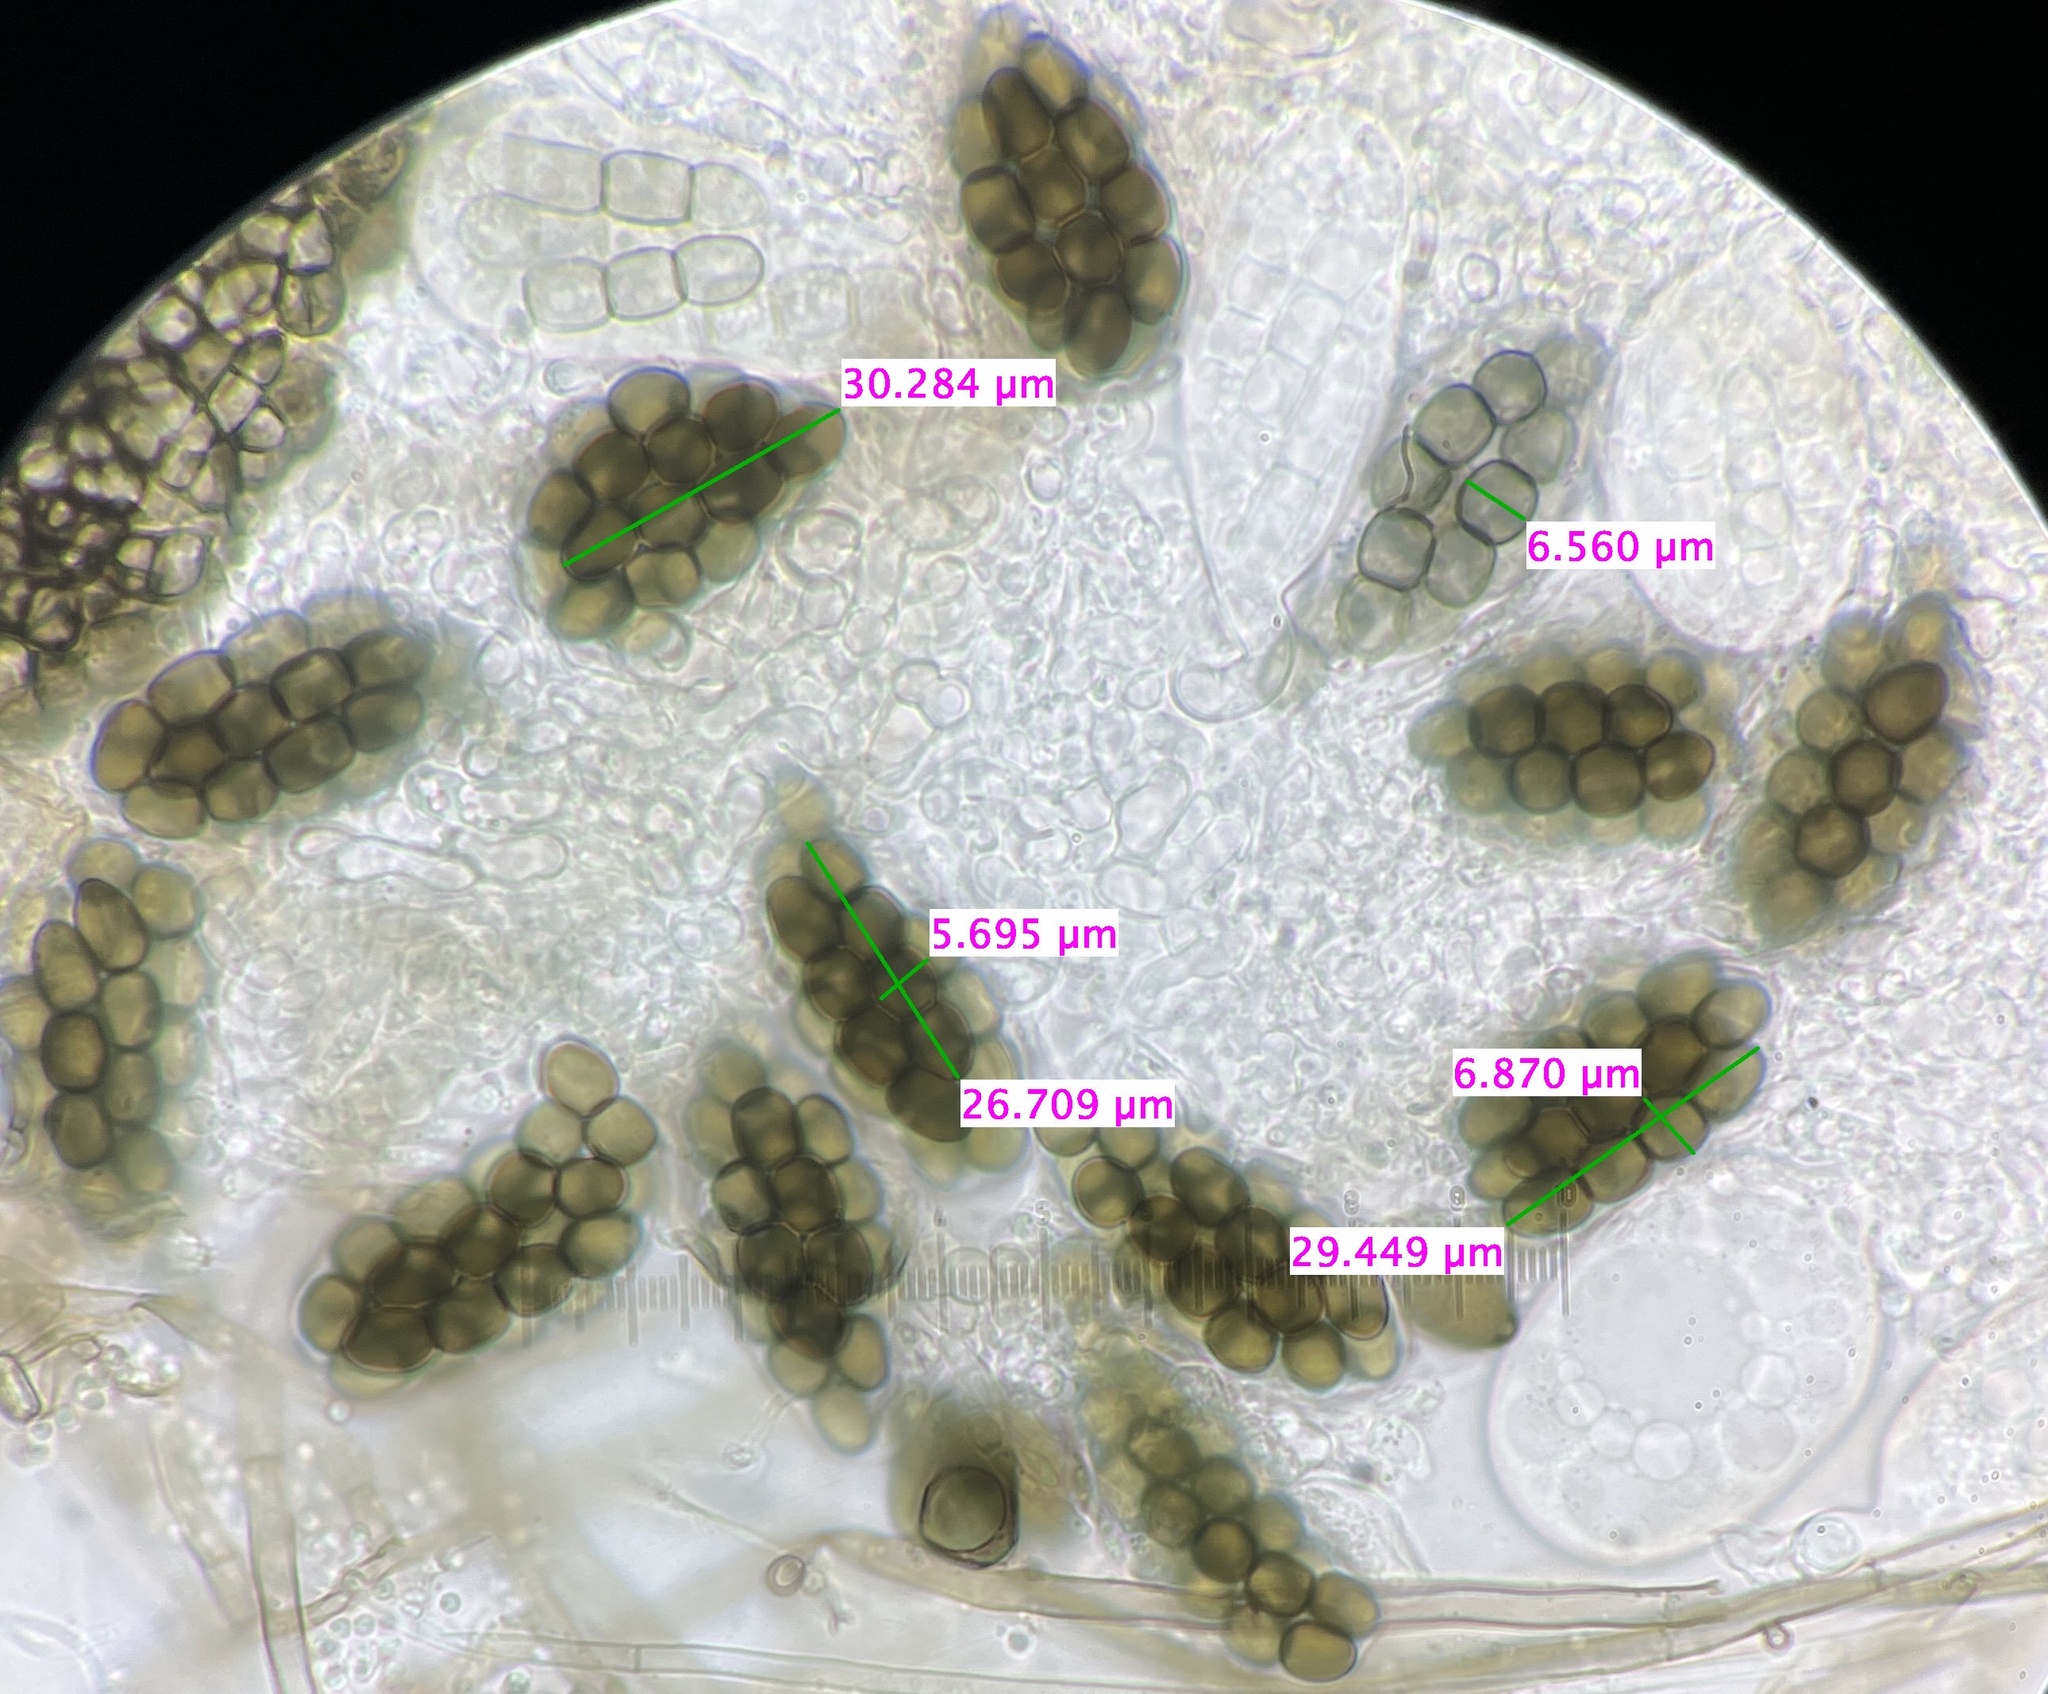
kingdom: Fungi
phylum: Ascomycota
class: Dothideomycetes
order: Pleosporales
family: Sporormiaceae
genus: Preussia
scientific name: Preussia fleischhakii
